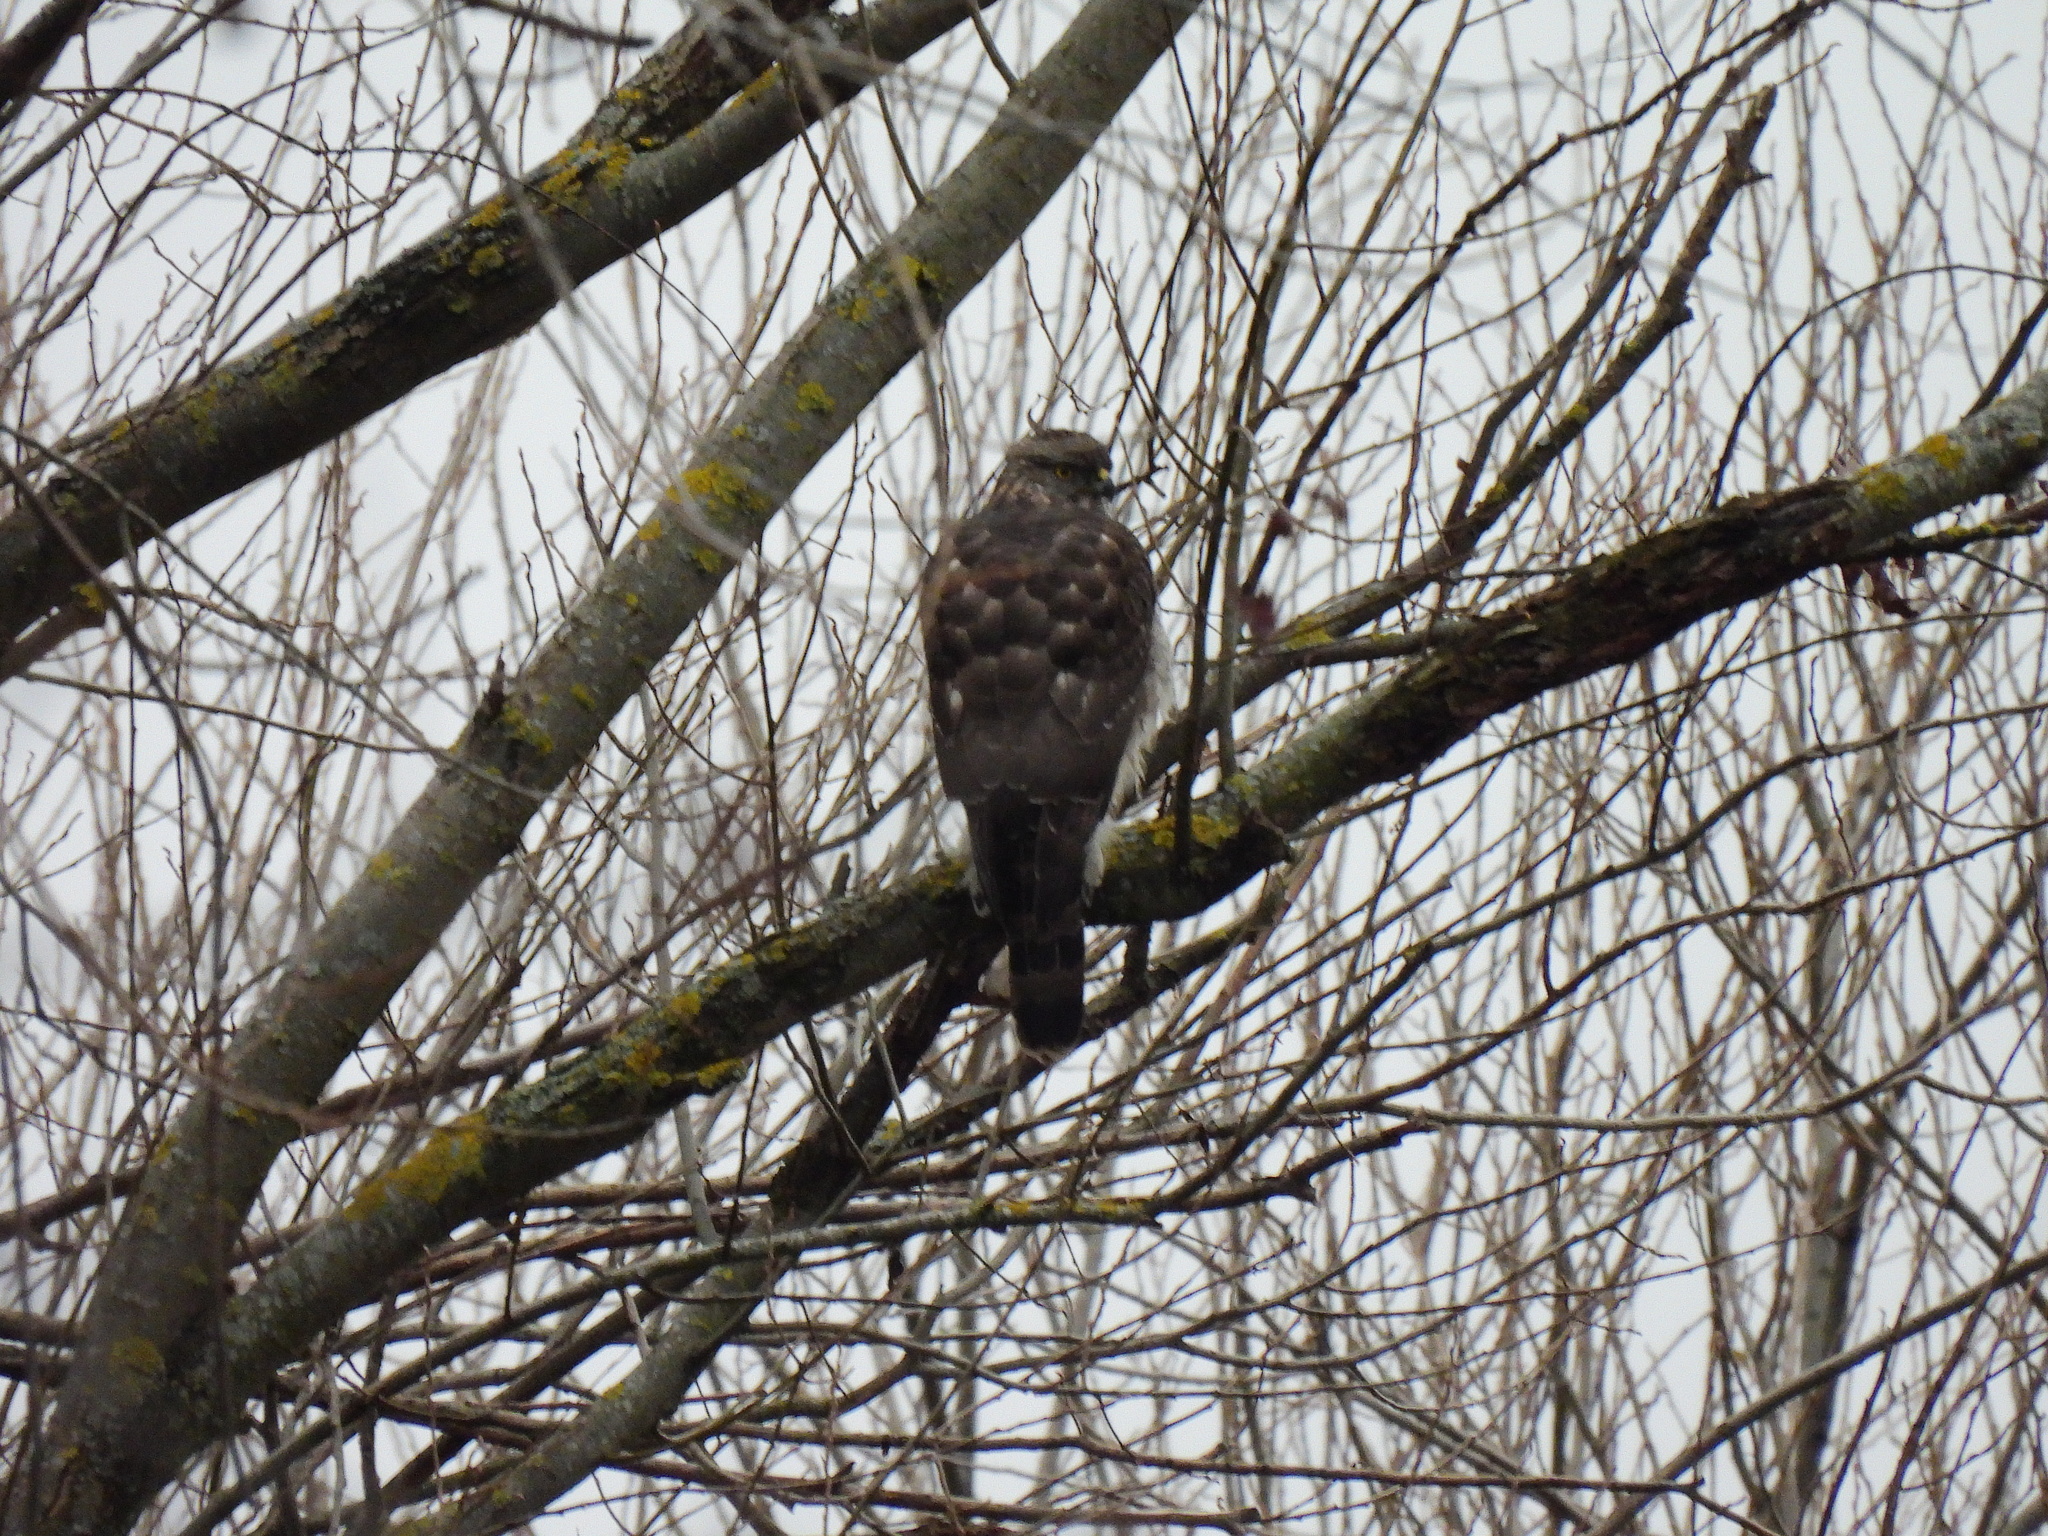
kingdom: Animalia
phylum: Chordata
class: Aves
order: Accipitriformes
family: Accipitridae
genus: Accipiter
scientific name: Accipiter nisus
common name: Eurasian sparrowhawk
